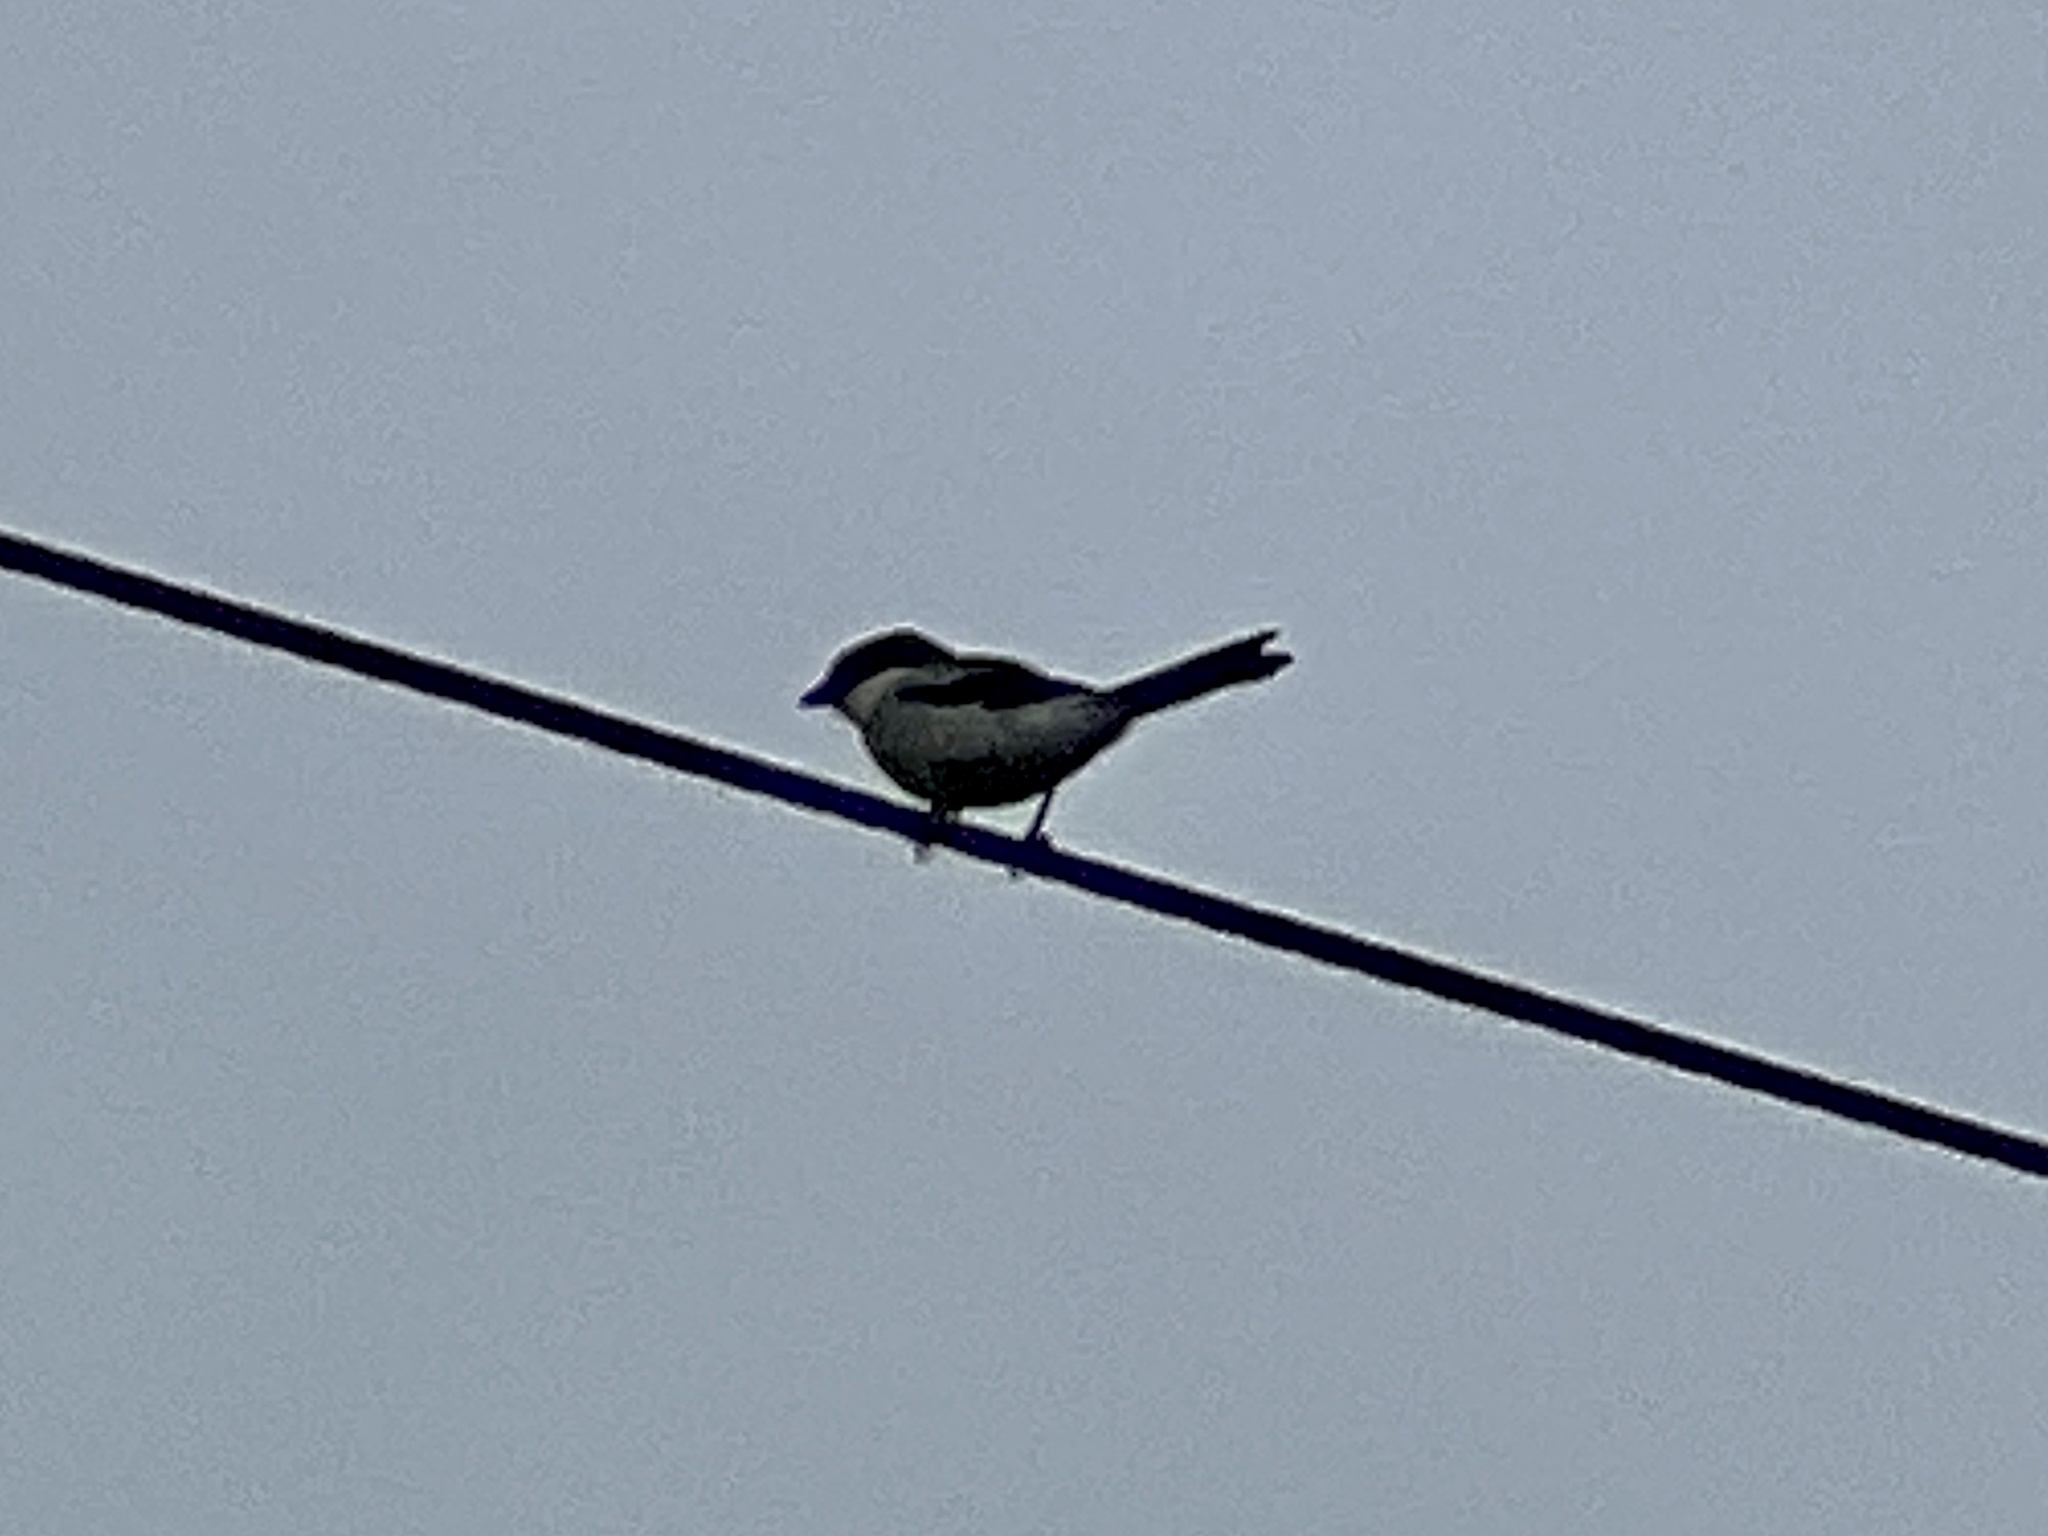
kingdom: Animalia
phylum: Chordata
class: Aves
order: Passeriformes
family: Laniidae
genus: Lanius
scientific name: Lanius ludovicianus
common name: Loggerhead shrike
